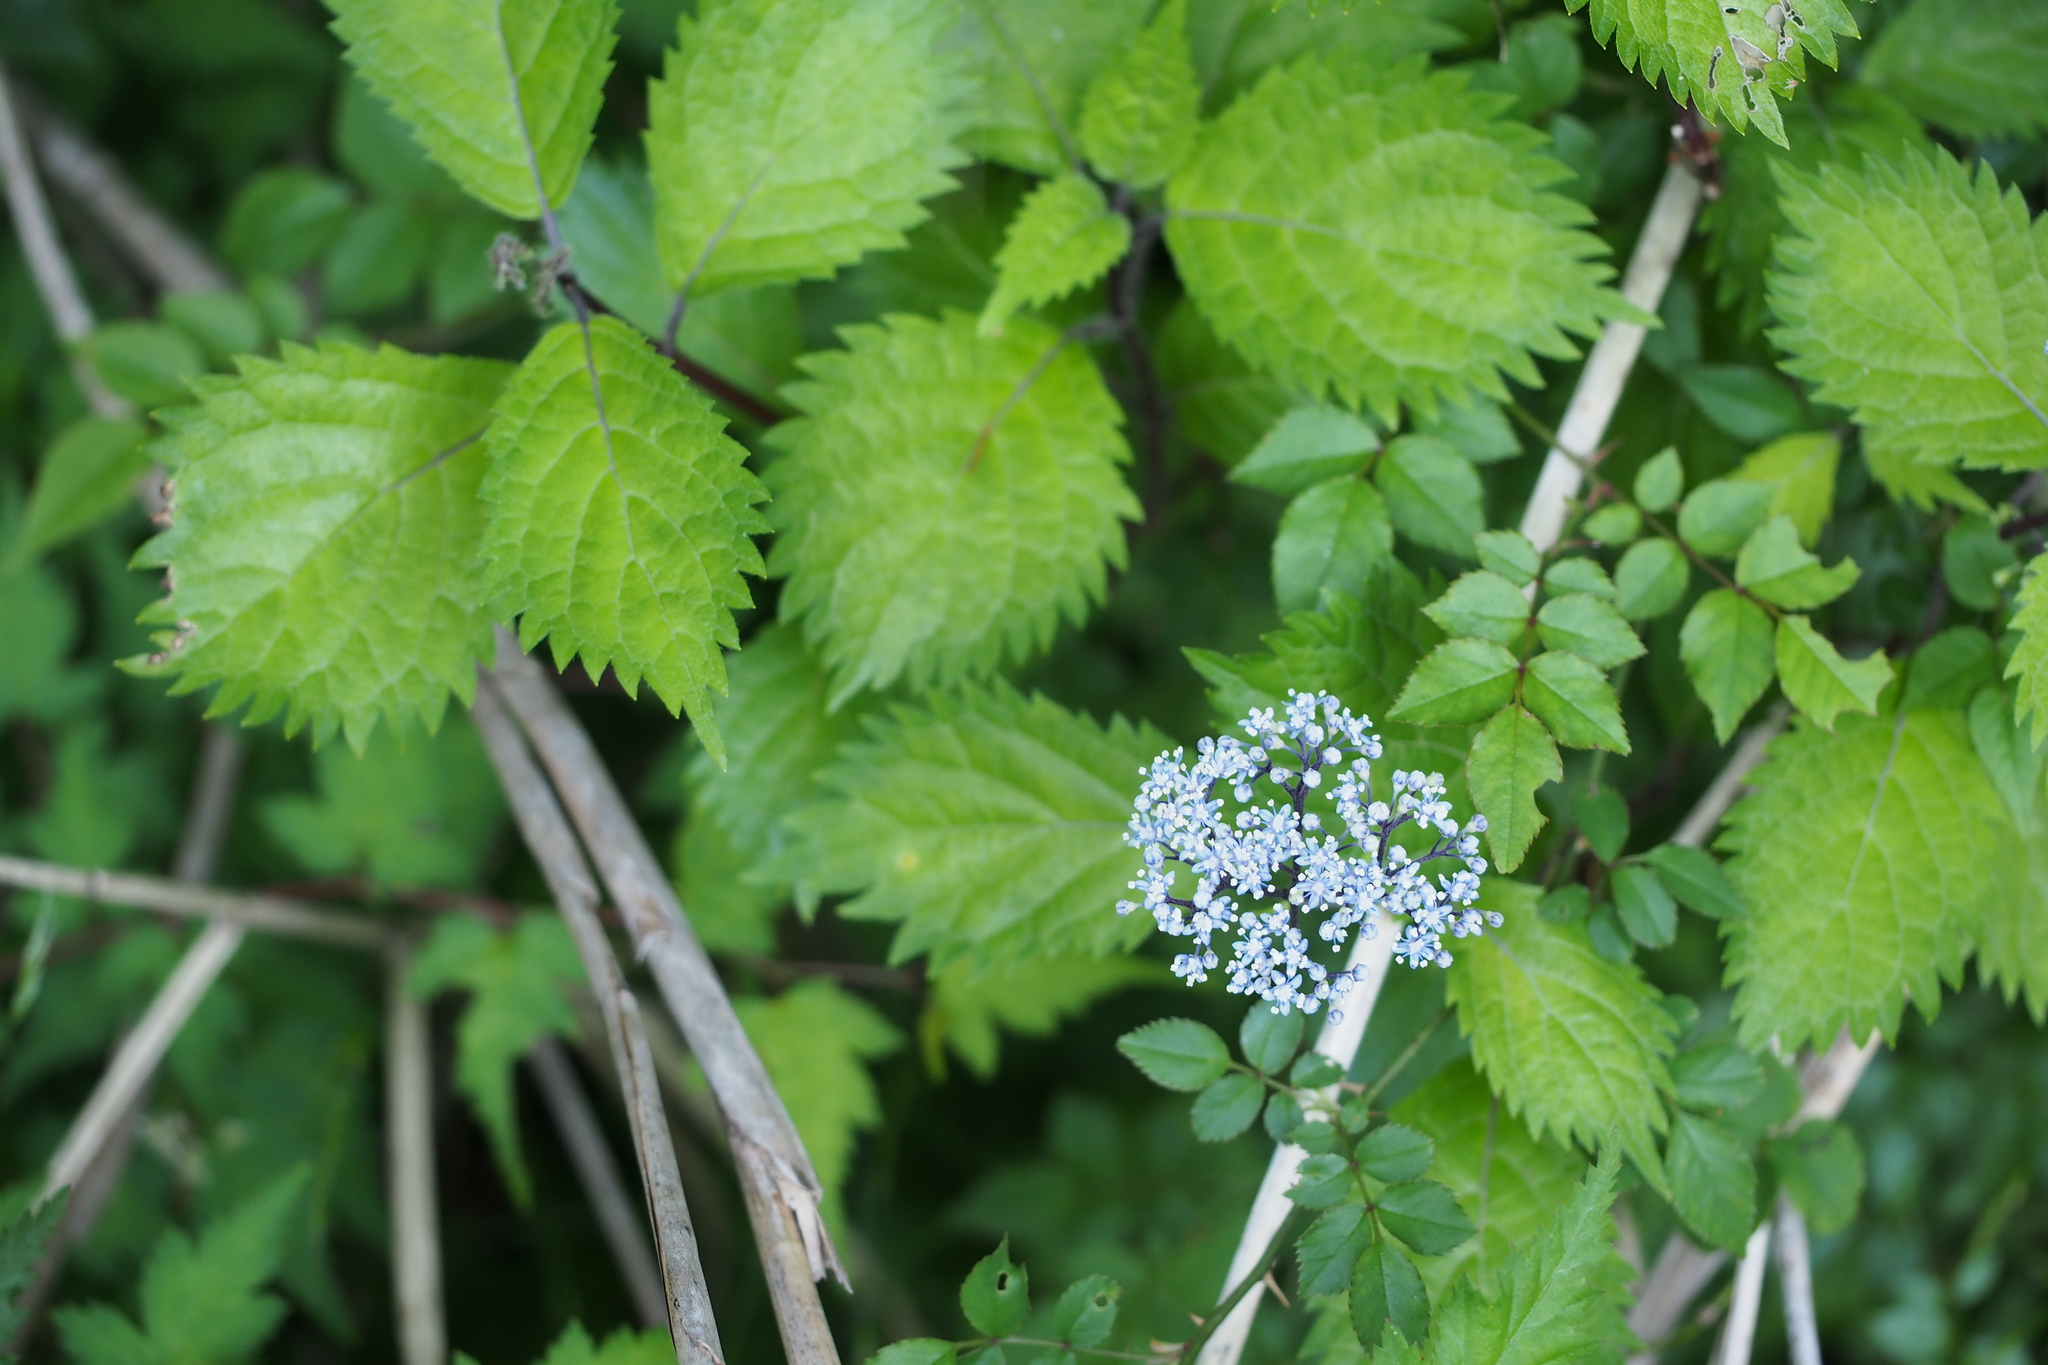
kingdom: Plantae
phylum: Tracheophyta
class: Magnoliopsida
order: Cornales
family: Hydrangeaceae
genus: Hydrangea
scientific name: Hydrangea hirta
